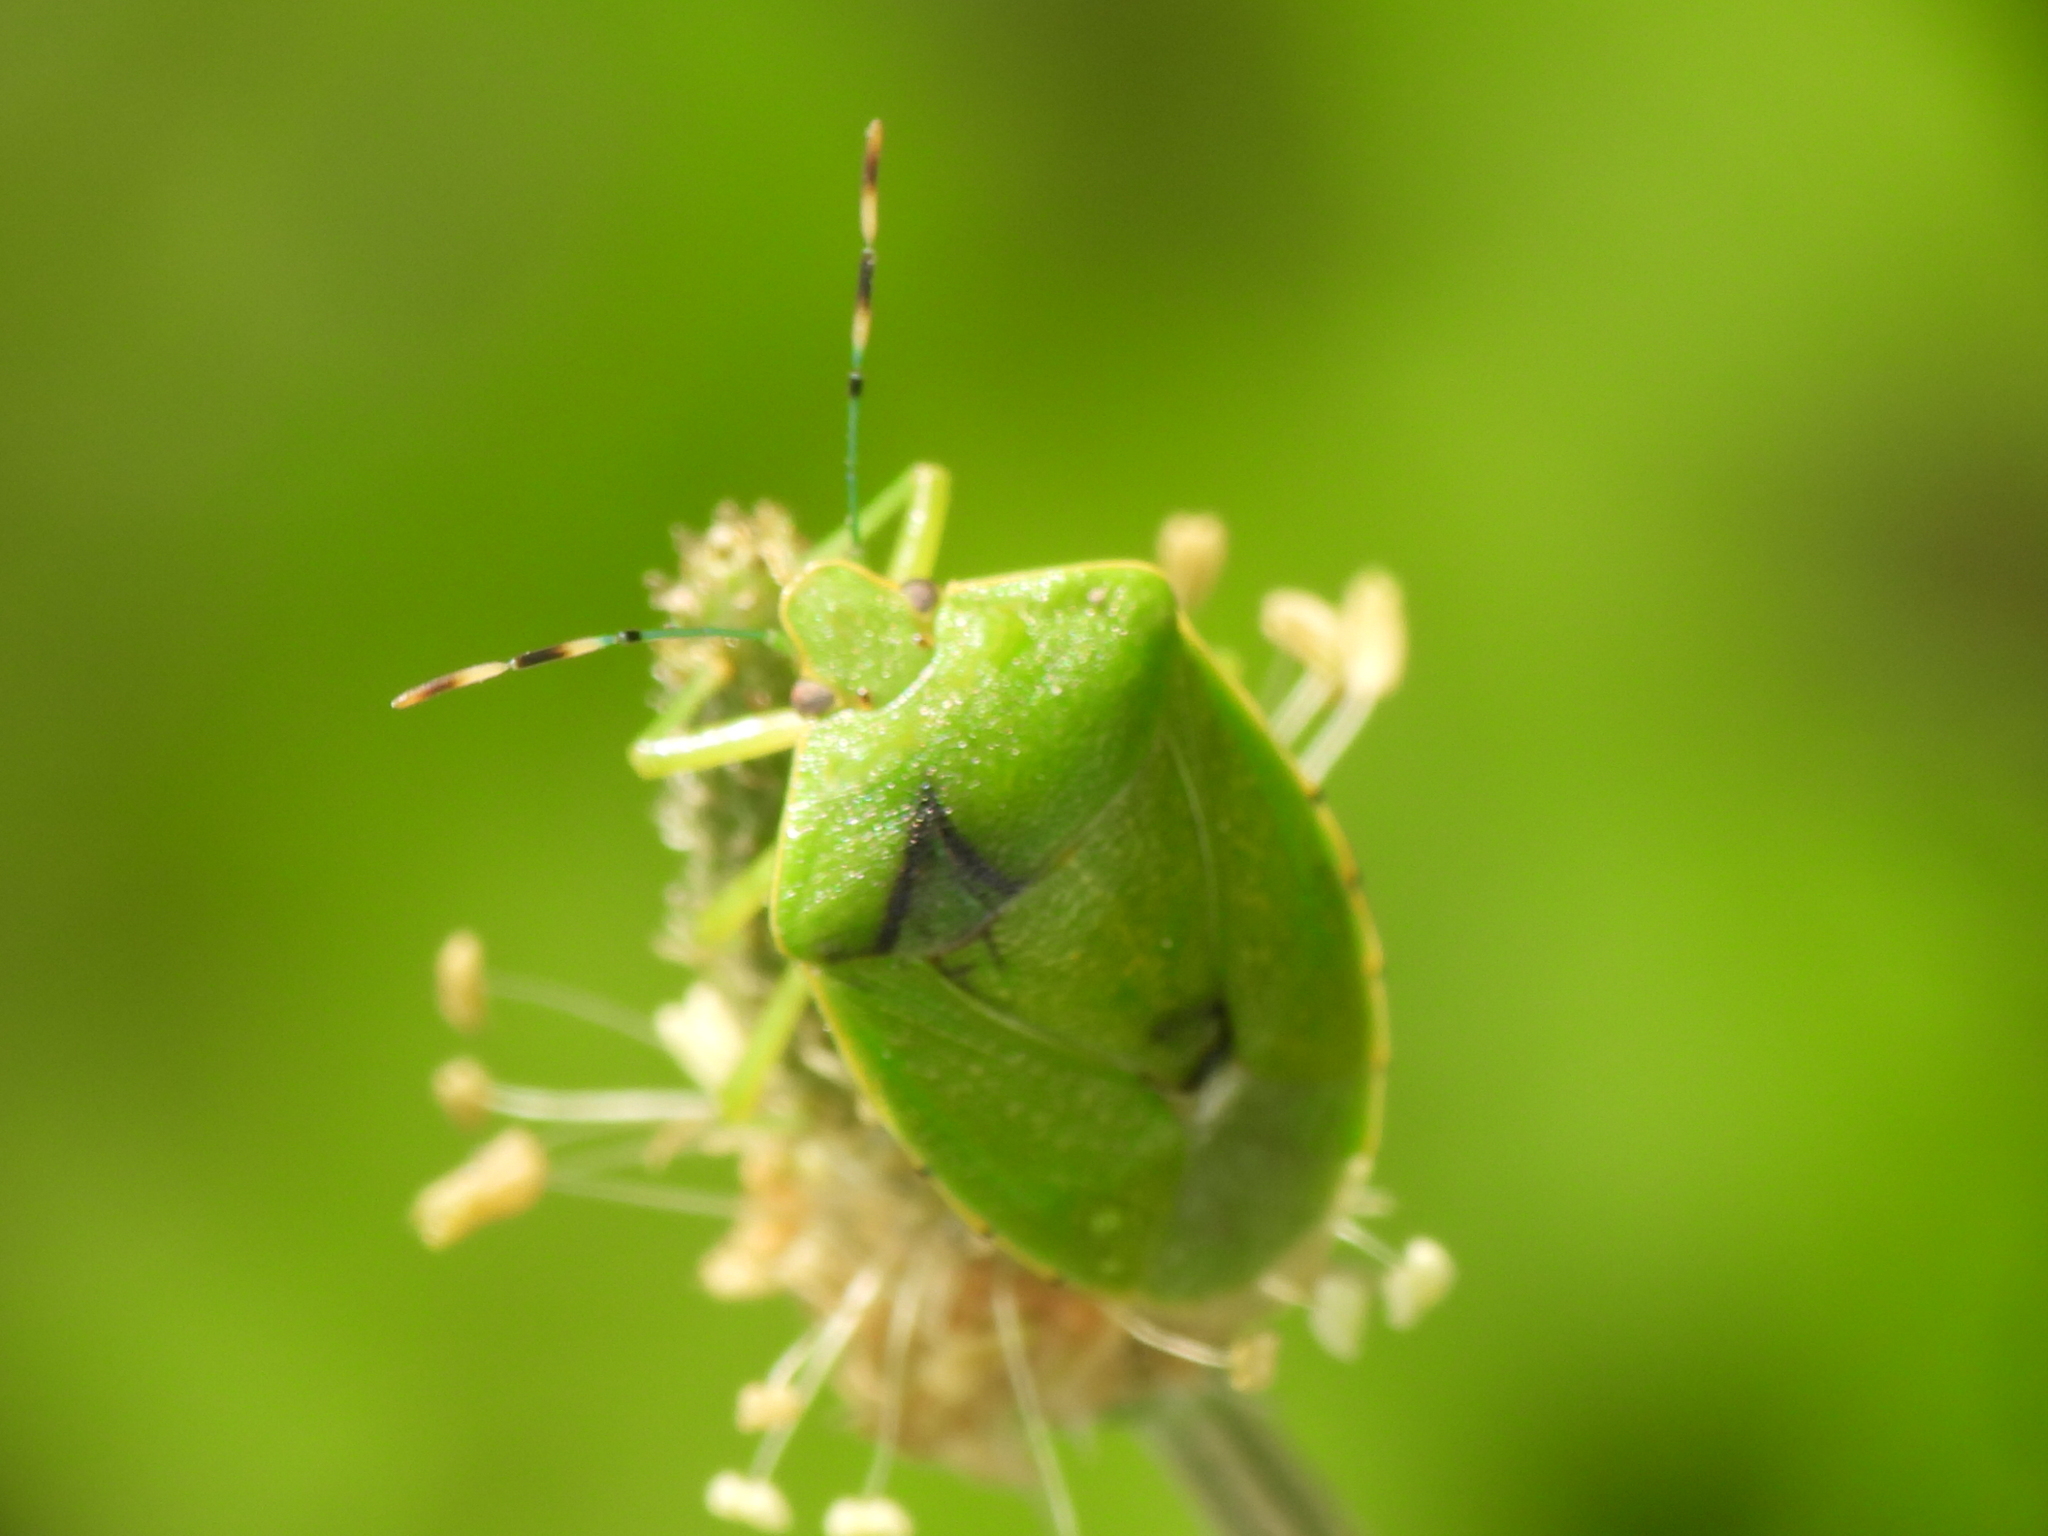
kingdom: Animalia
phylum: Arthropoda
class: Insecta
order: Hemiptera
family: Pentatomidae
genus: Chinavia
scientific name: Chinavia hilaris
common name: Green stink bug
